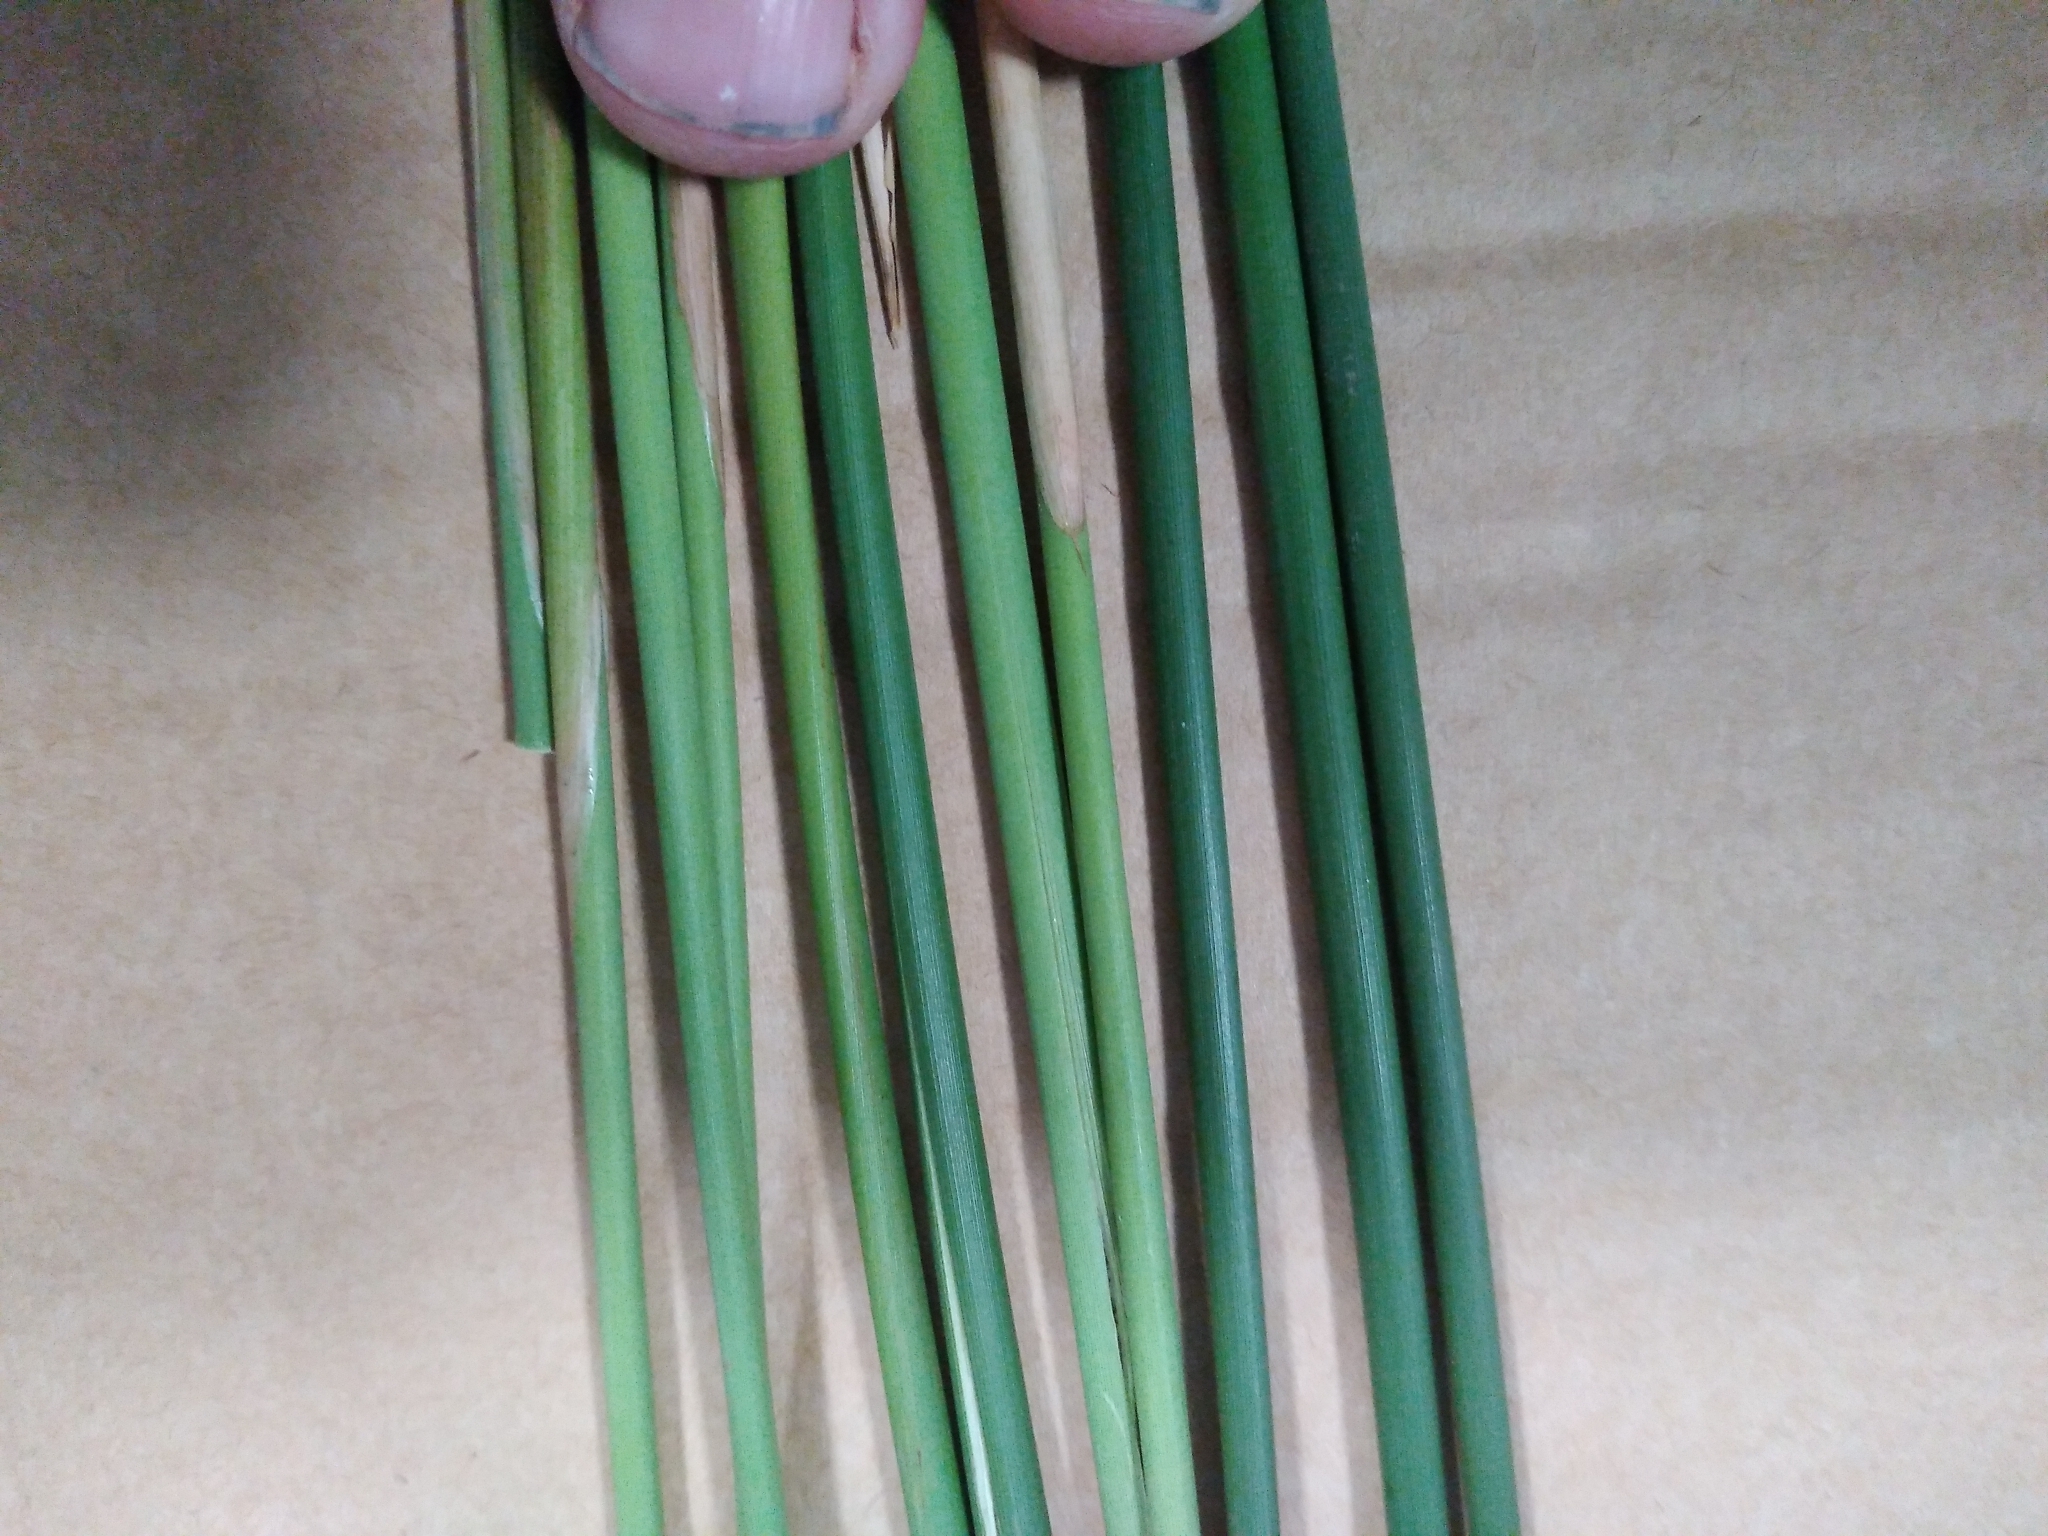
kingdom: Plantae
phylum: Tracheophyta
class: Liliopsida
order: Poales
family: Juncaceae
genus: Juncus
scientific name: Juncus amabilis
